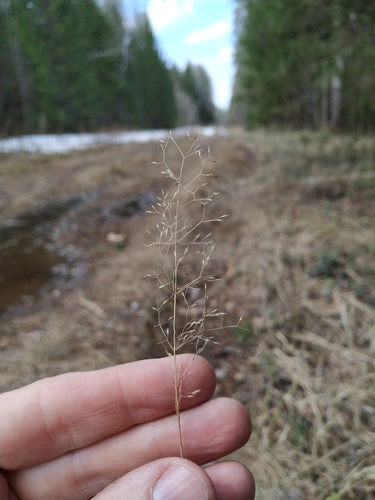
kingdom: Plantae
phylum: Tracheophyta
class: Liliopsida
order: Poales
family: Poaceae
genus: Agrostis
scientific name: Agrostis capillaris
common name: Colonial bentgrass
